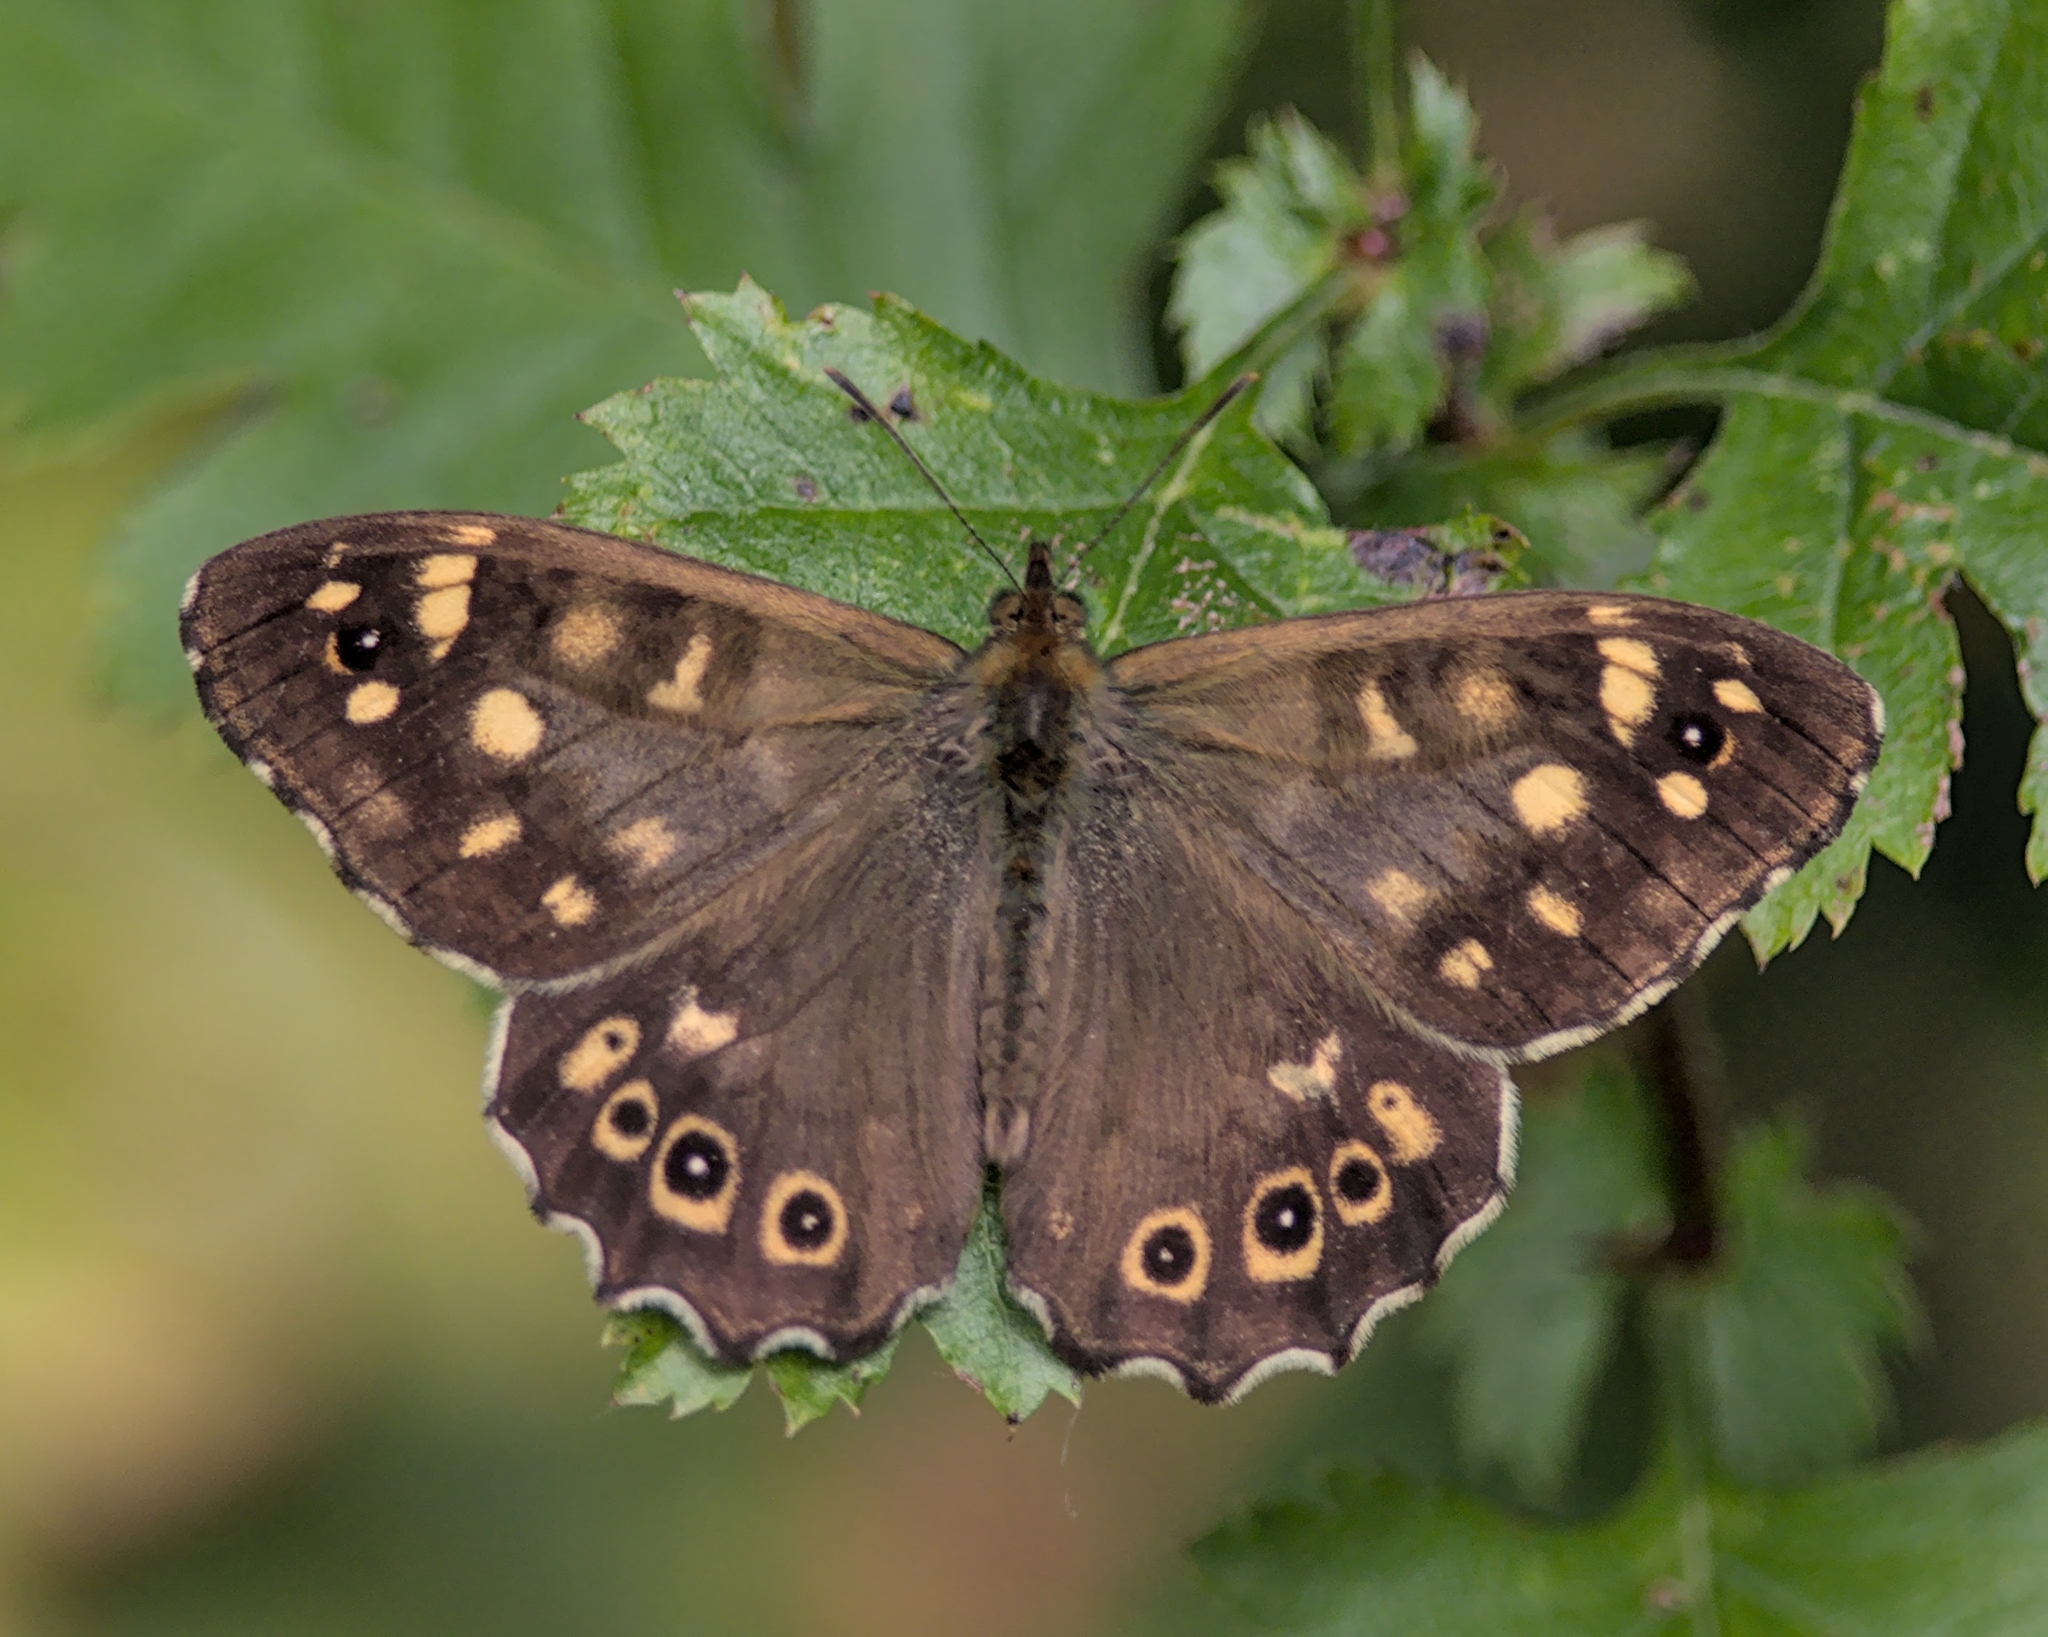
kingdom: Animalia
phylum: Arthropoda
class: Insecta
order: Lepidoptera
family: Nymphalidae
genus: Pararge
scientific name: Pararge aegeria
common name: Speckled wood
